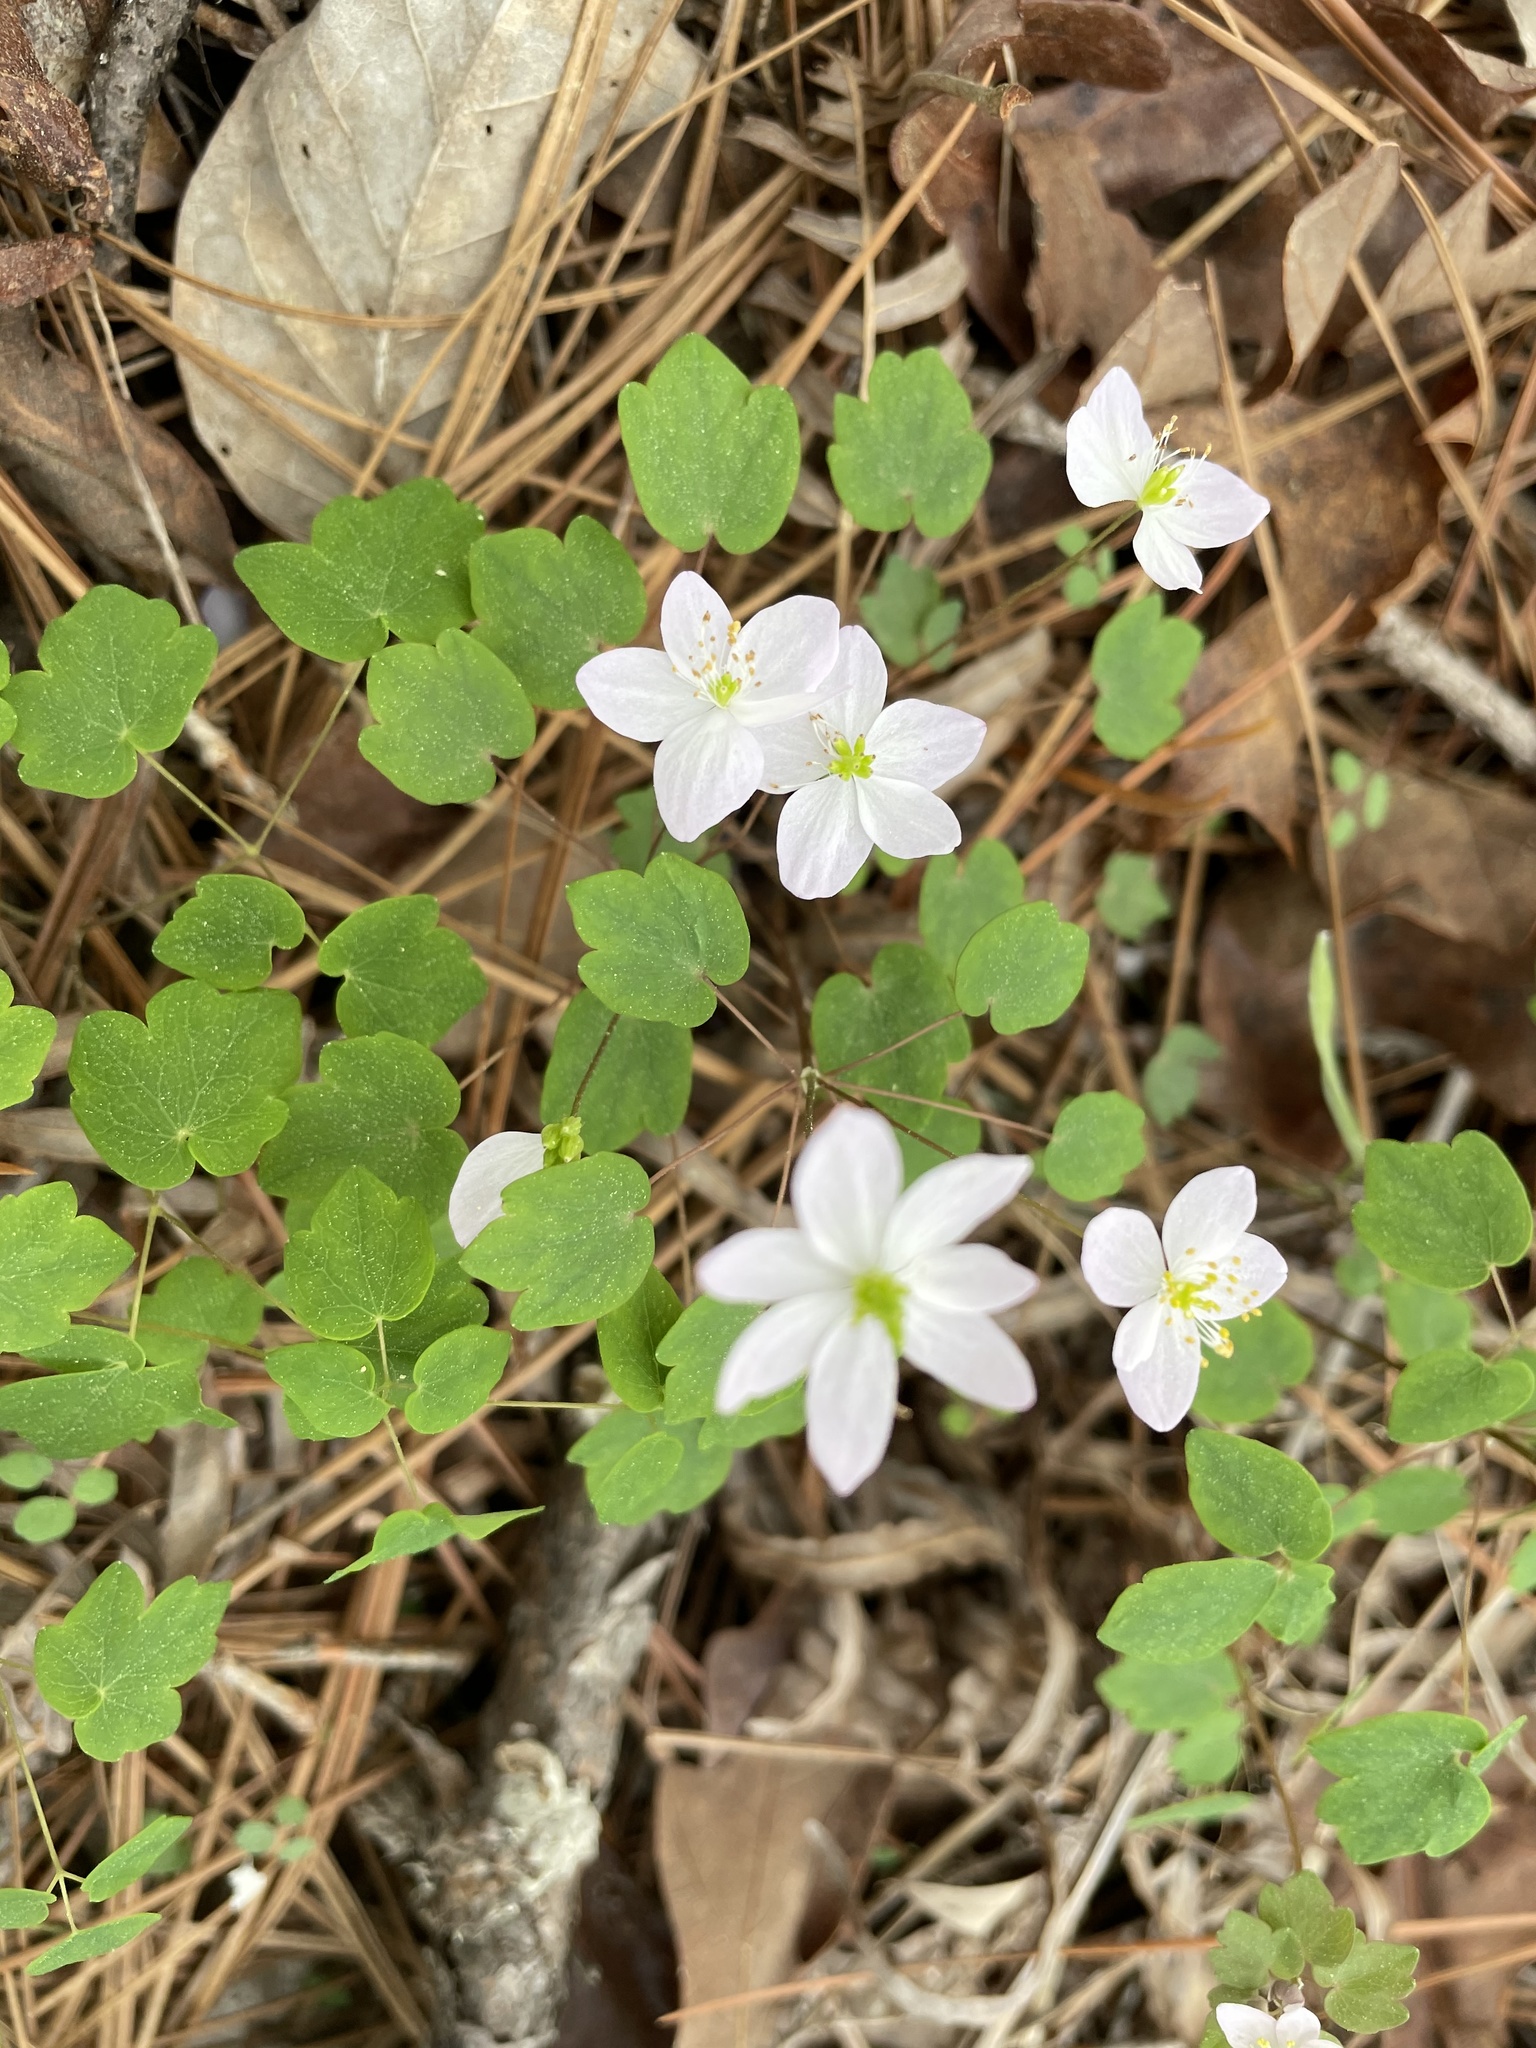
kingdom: Plantae
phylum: Tracheophyta
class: Magnoliopsida
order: Ranunculales
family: Ranunculaceae
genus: Thalictrum
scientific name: Thalictrum thalictroides
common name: Rue-anemone
